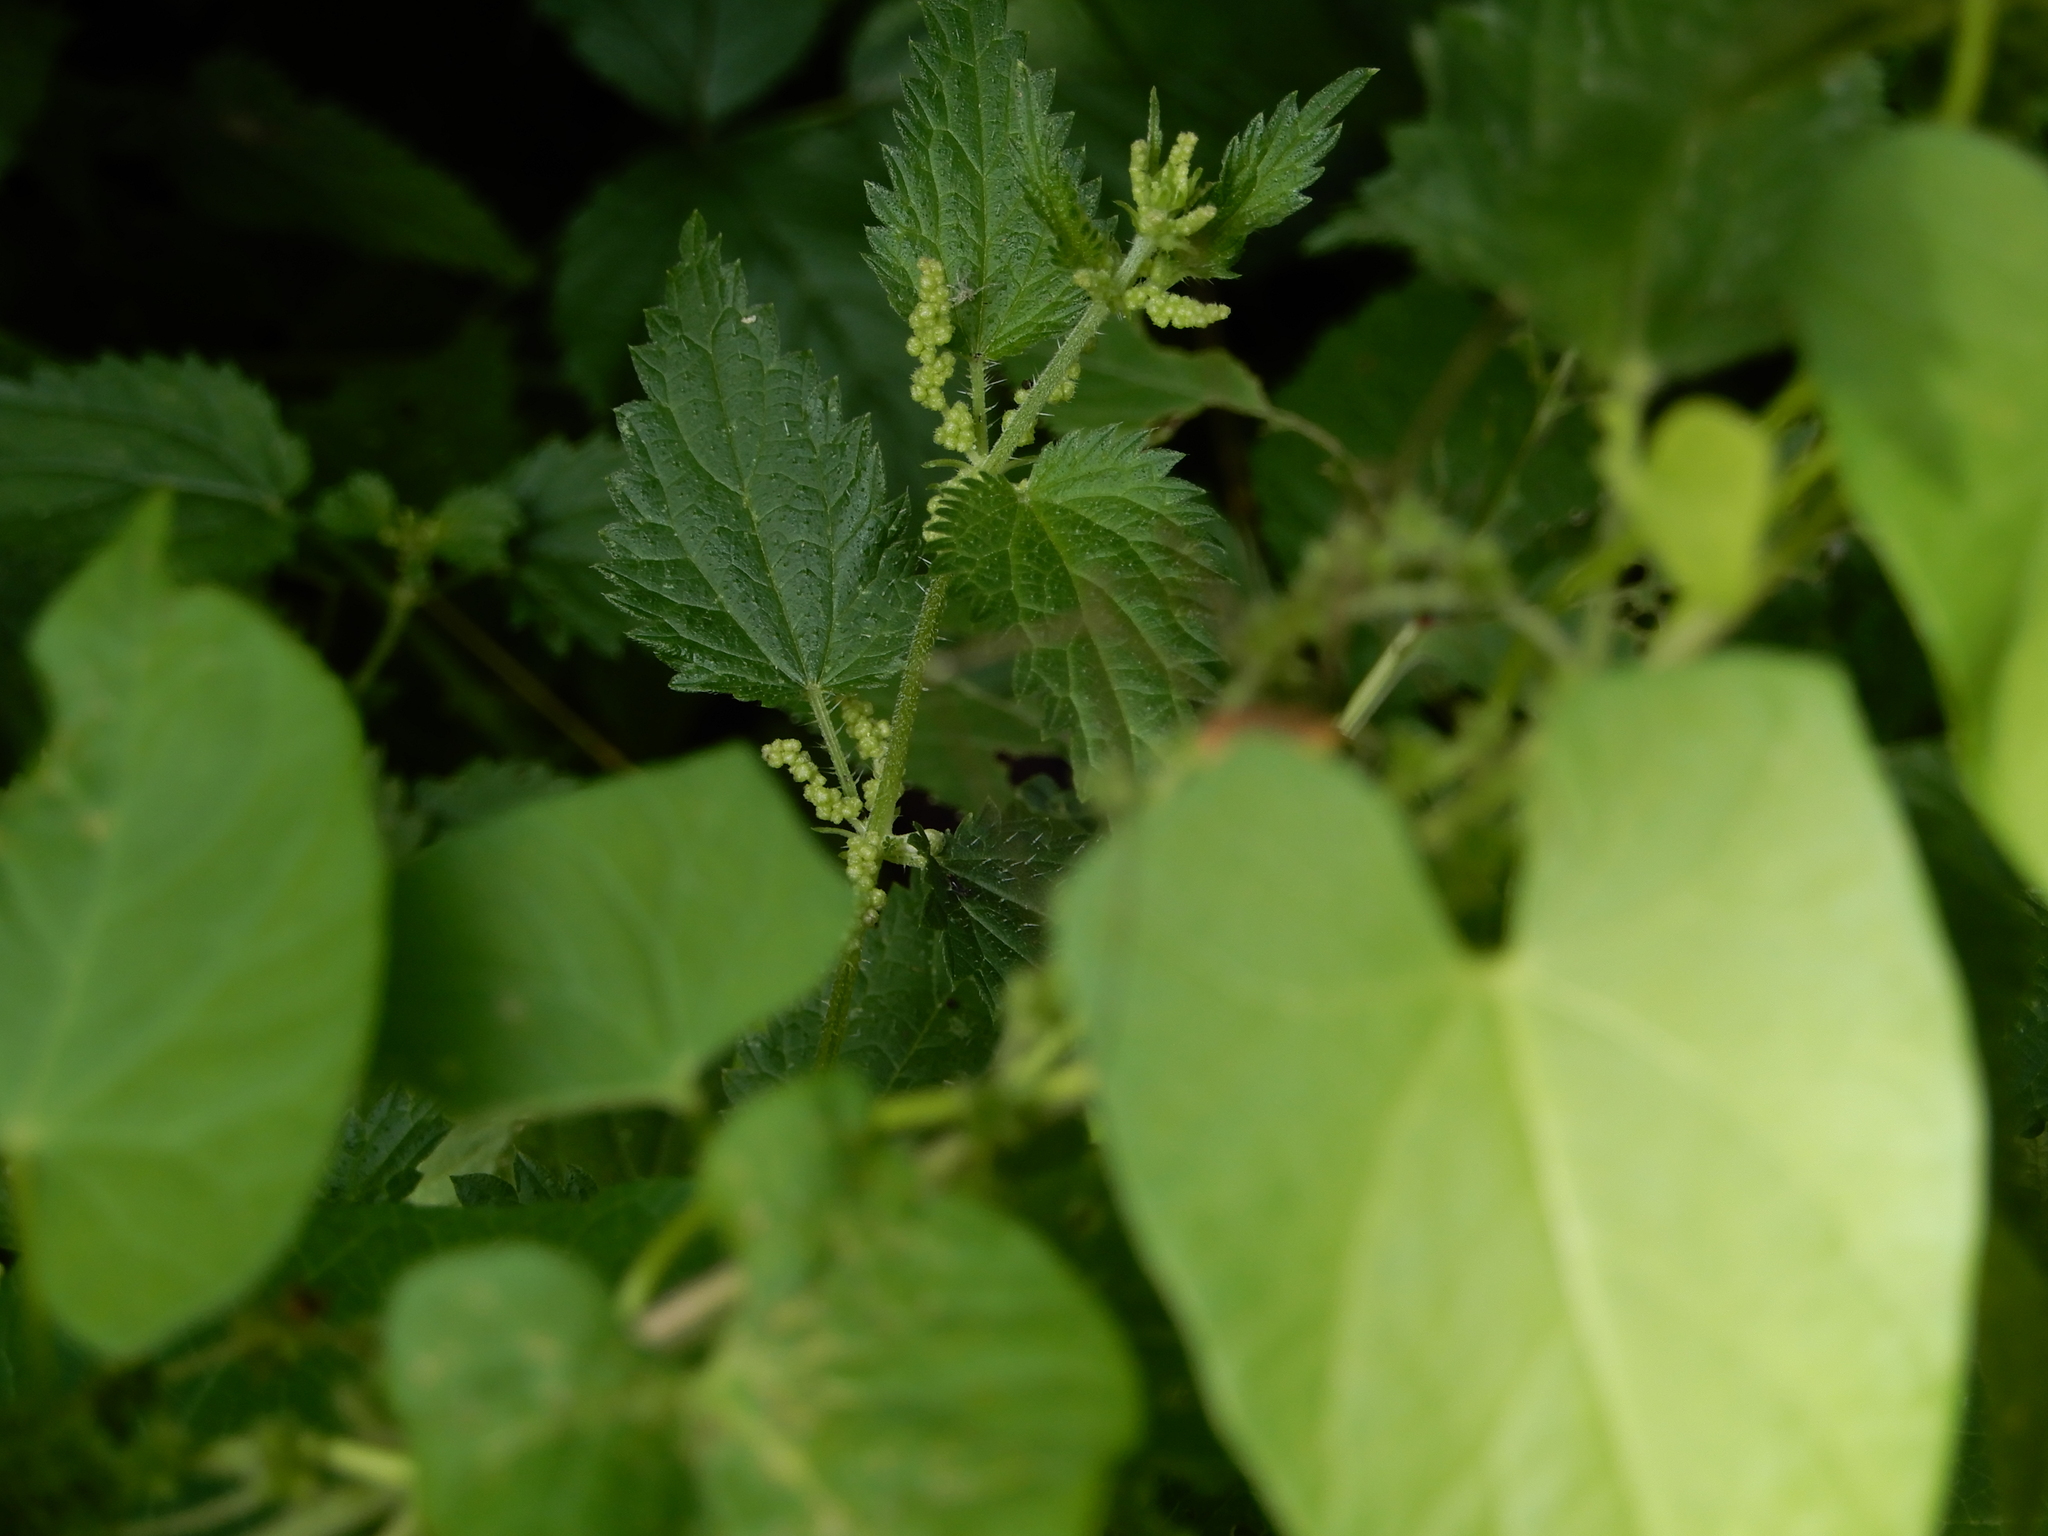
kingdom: Plantae
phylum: Tracheophyta
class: Magnoliopsida
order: Rosales
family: Urticaceae
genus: Urtica
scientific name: Urtica dioica
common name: Common nettle
